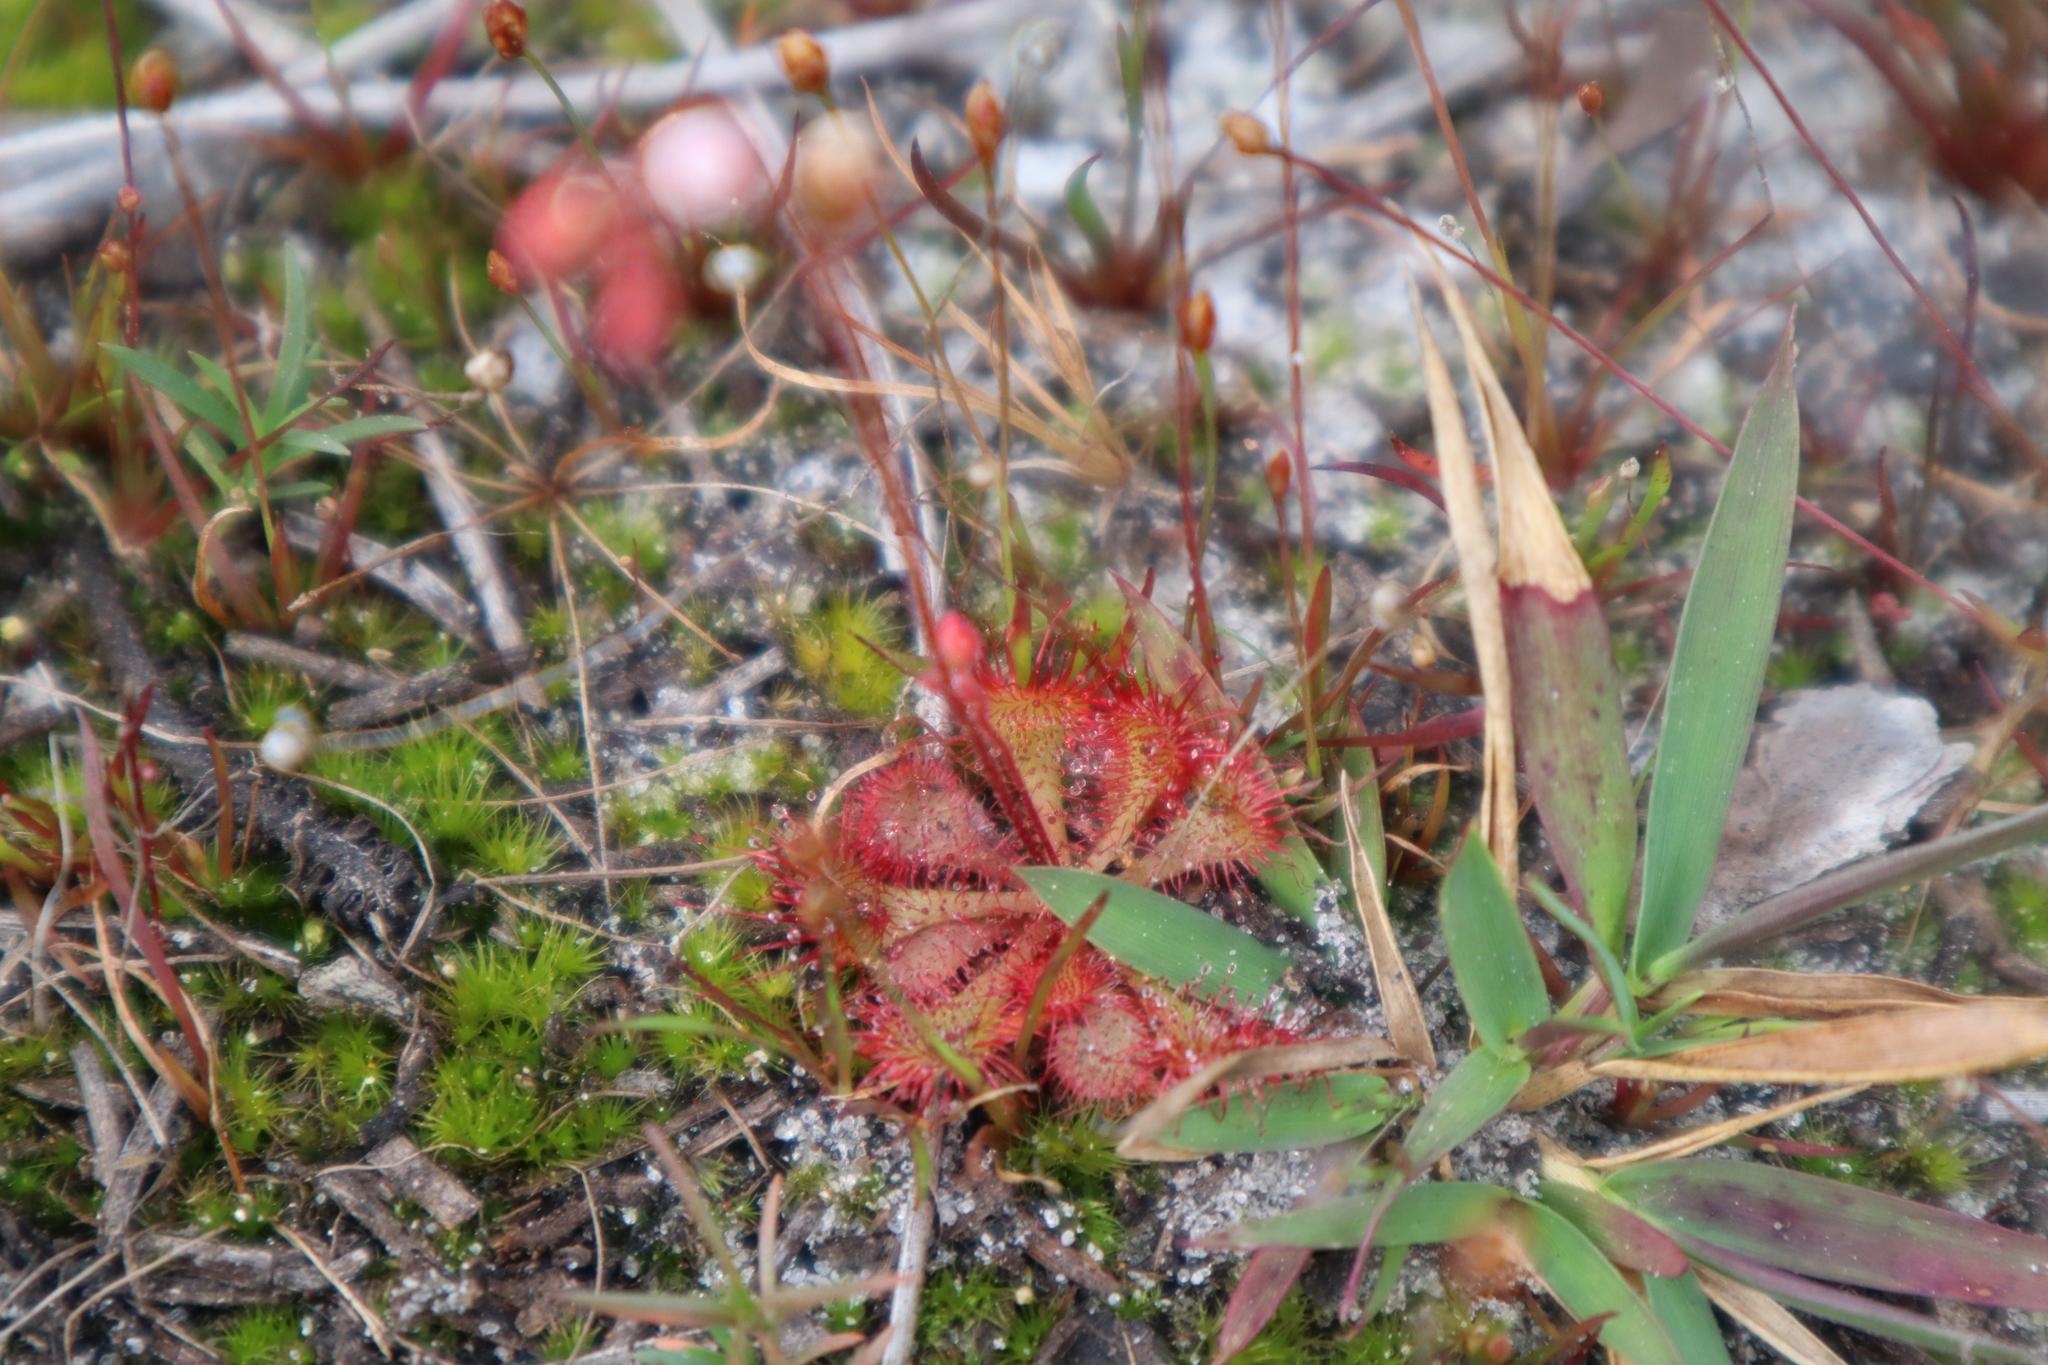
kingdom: Plantae
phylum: Tracheophyta
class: Magnoliopsida
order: Caryophyllales
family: Droseraceae
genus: Drosera
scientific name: Drosera brevifolia
